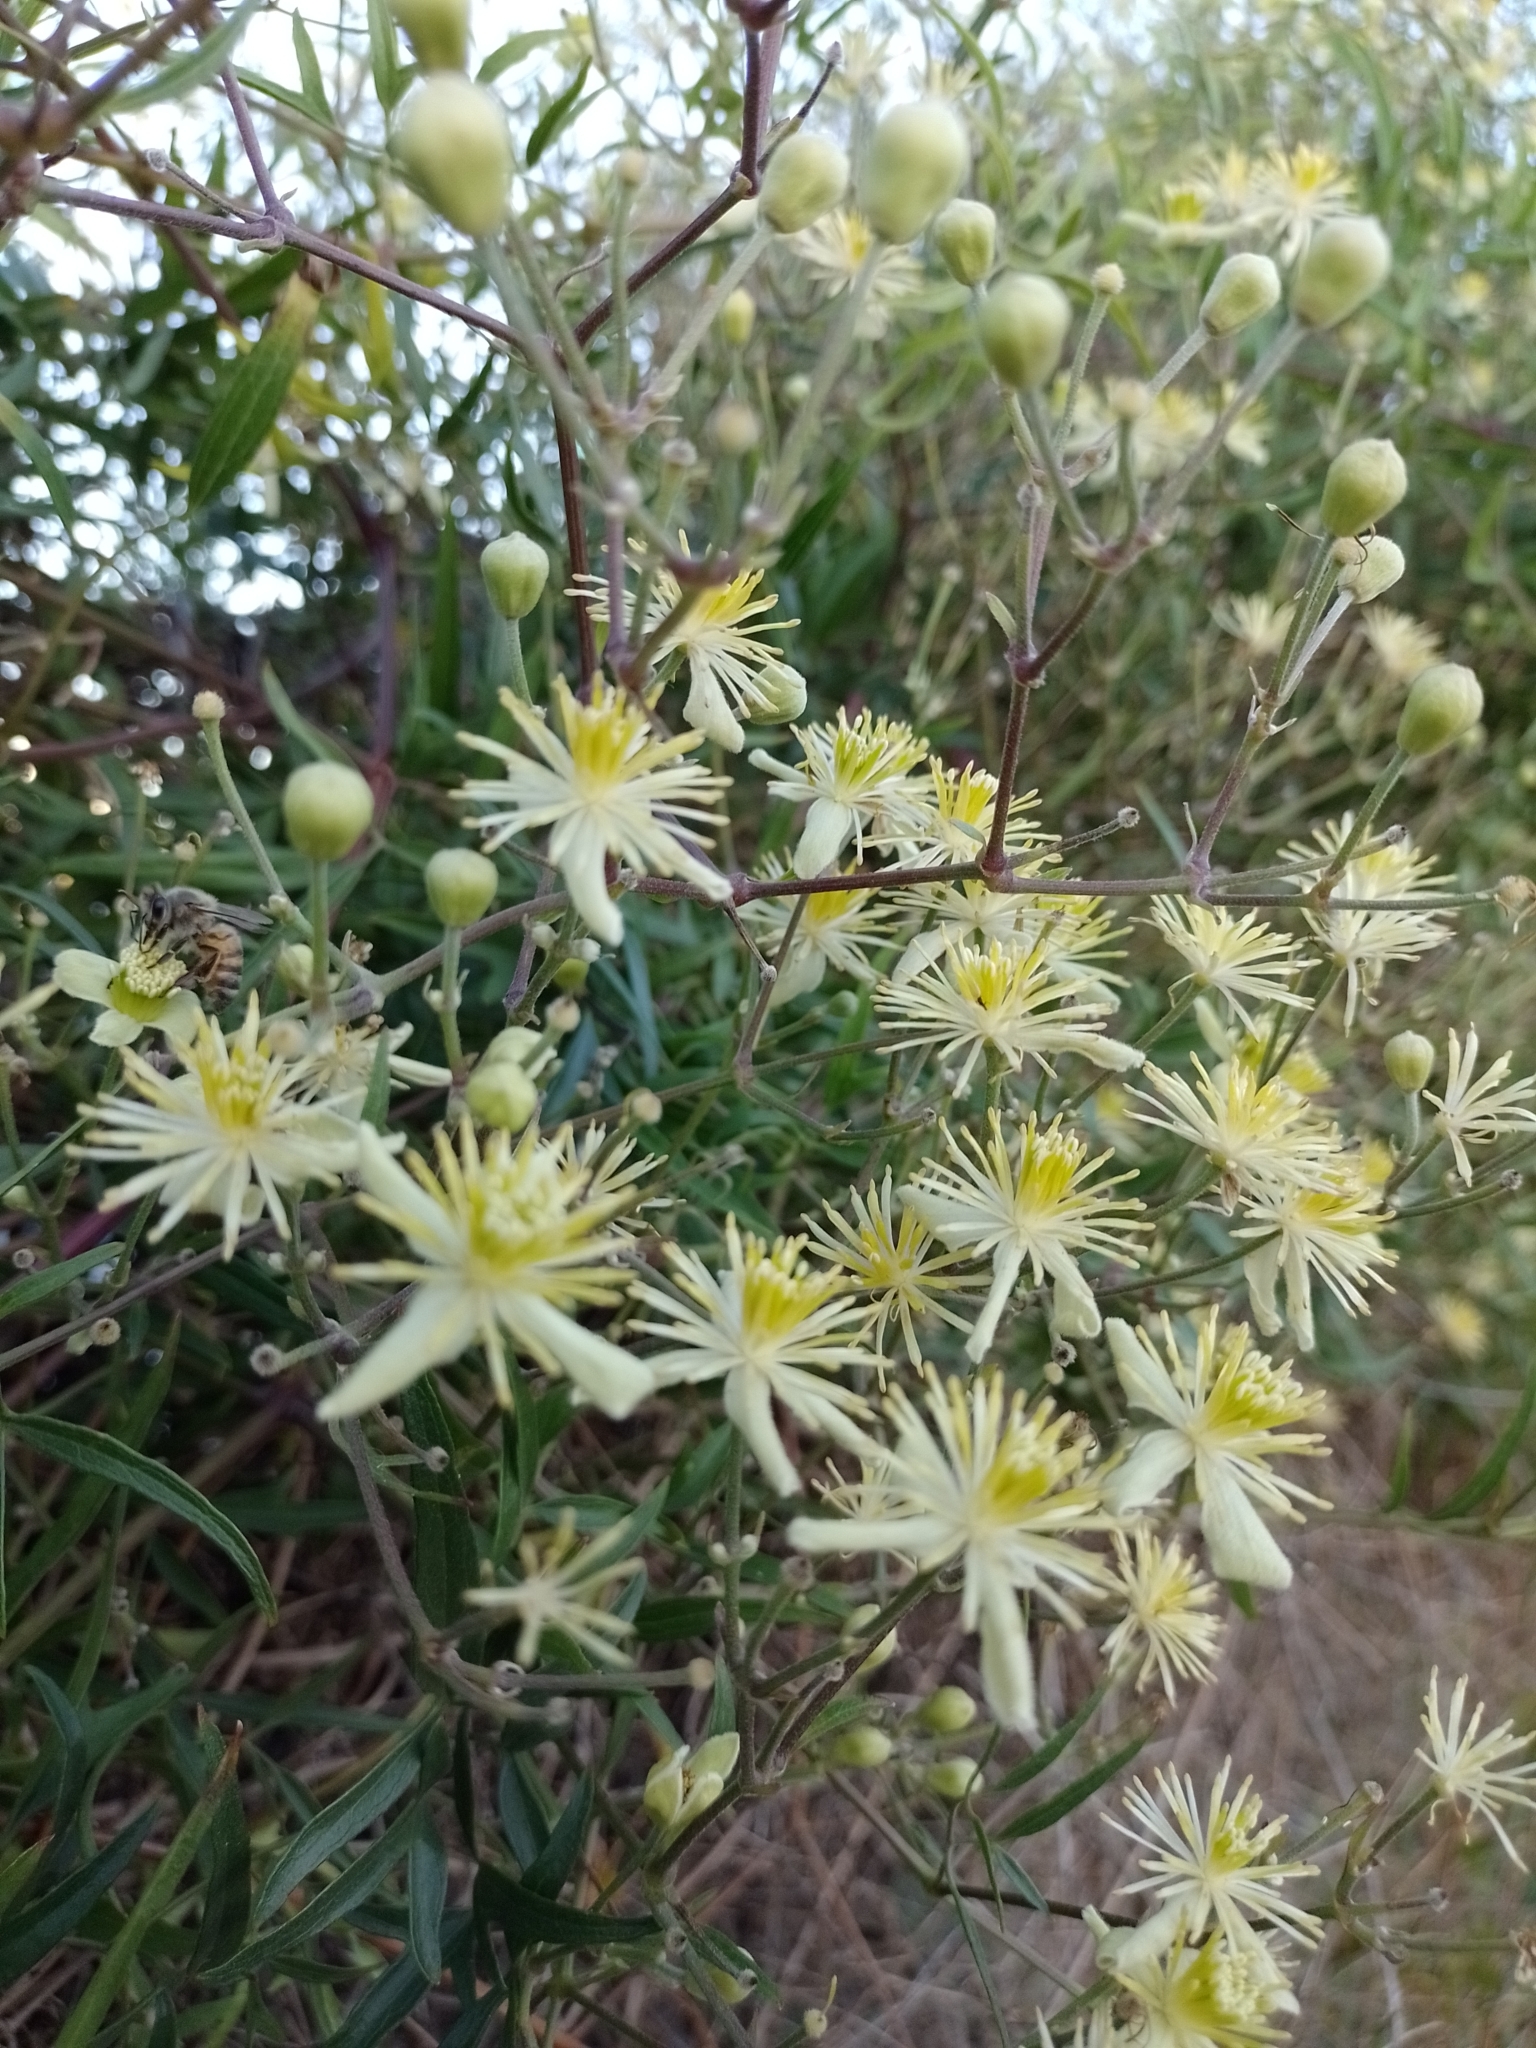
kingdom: Plantae
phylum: Tracheophyta
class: Magnoliopsida
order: Ranunculales
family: Ranunculaceae
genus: Clematis
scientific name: Clematis montevidensis
